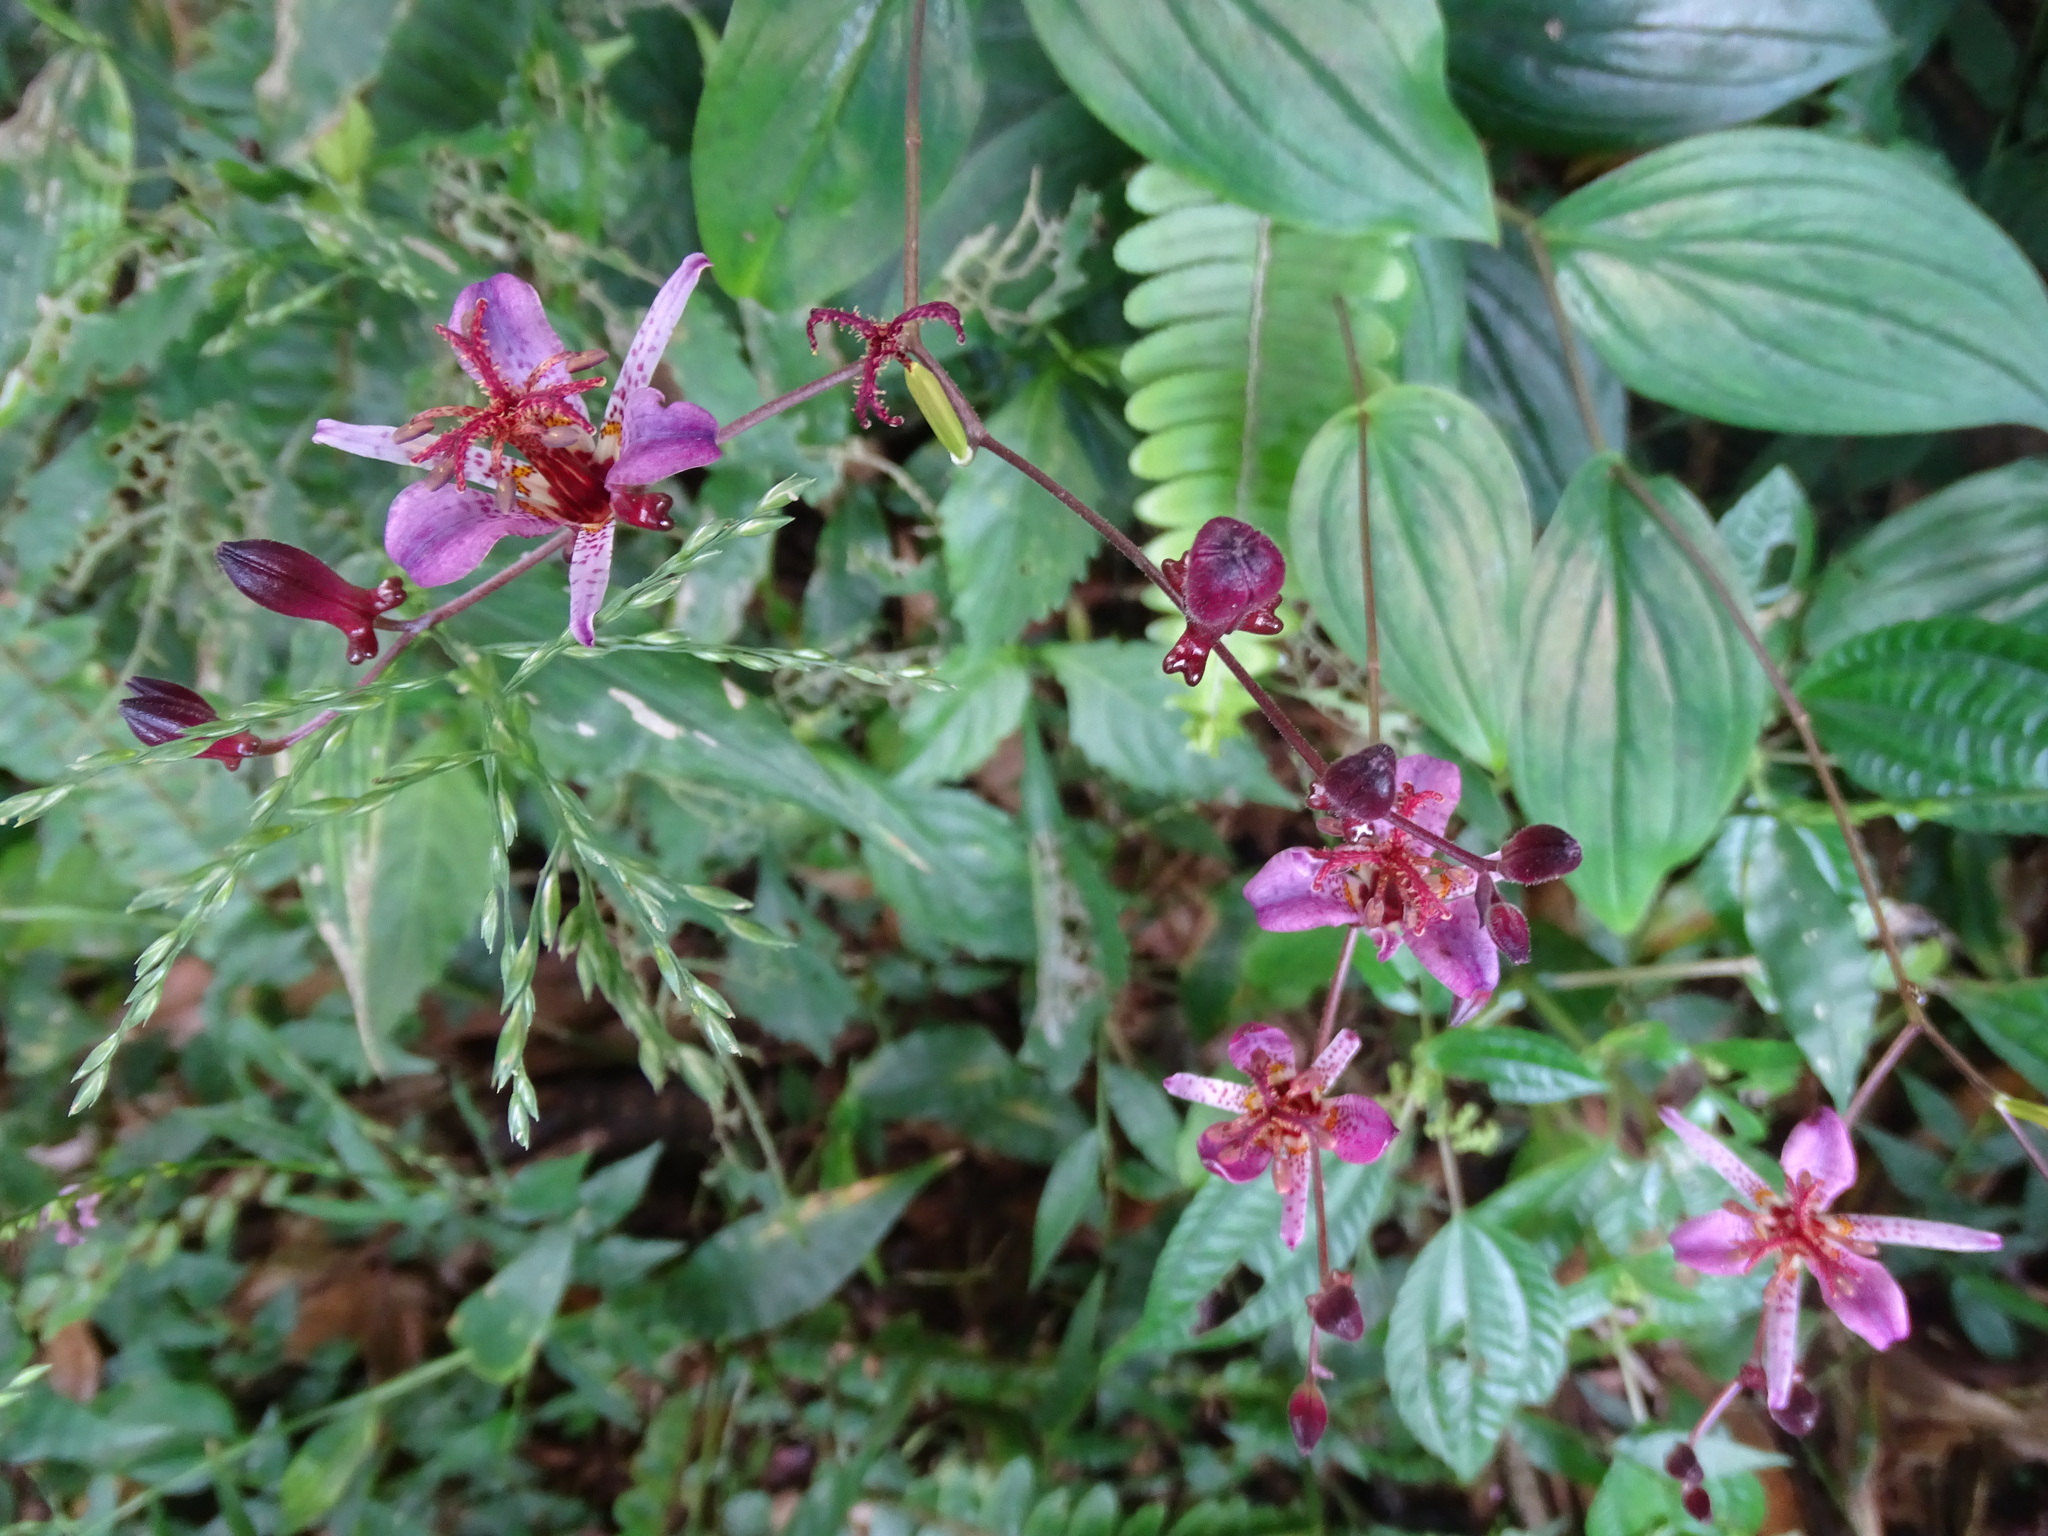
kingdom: Plantae
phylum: Tracheophyta
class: Liliopsida
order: Liliales
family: Liliaceae
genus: Tricyrtis
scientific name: Tricyrtis formosana
